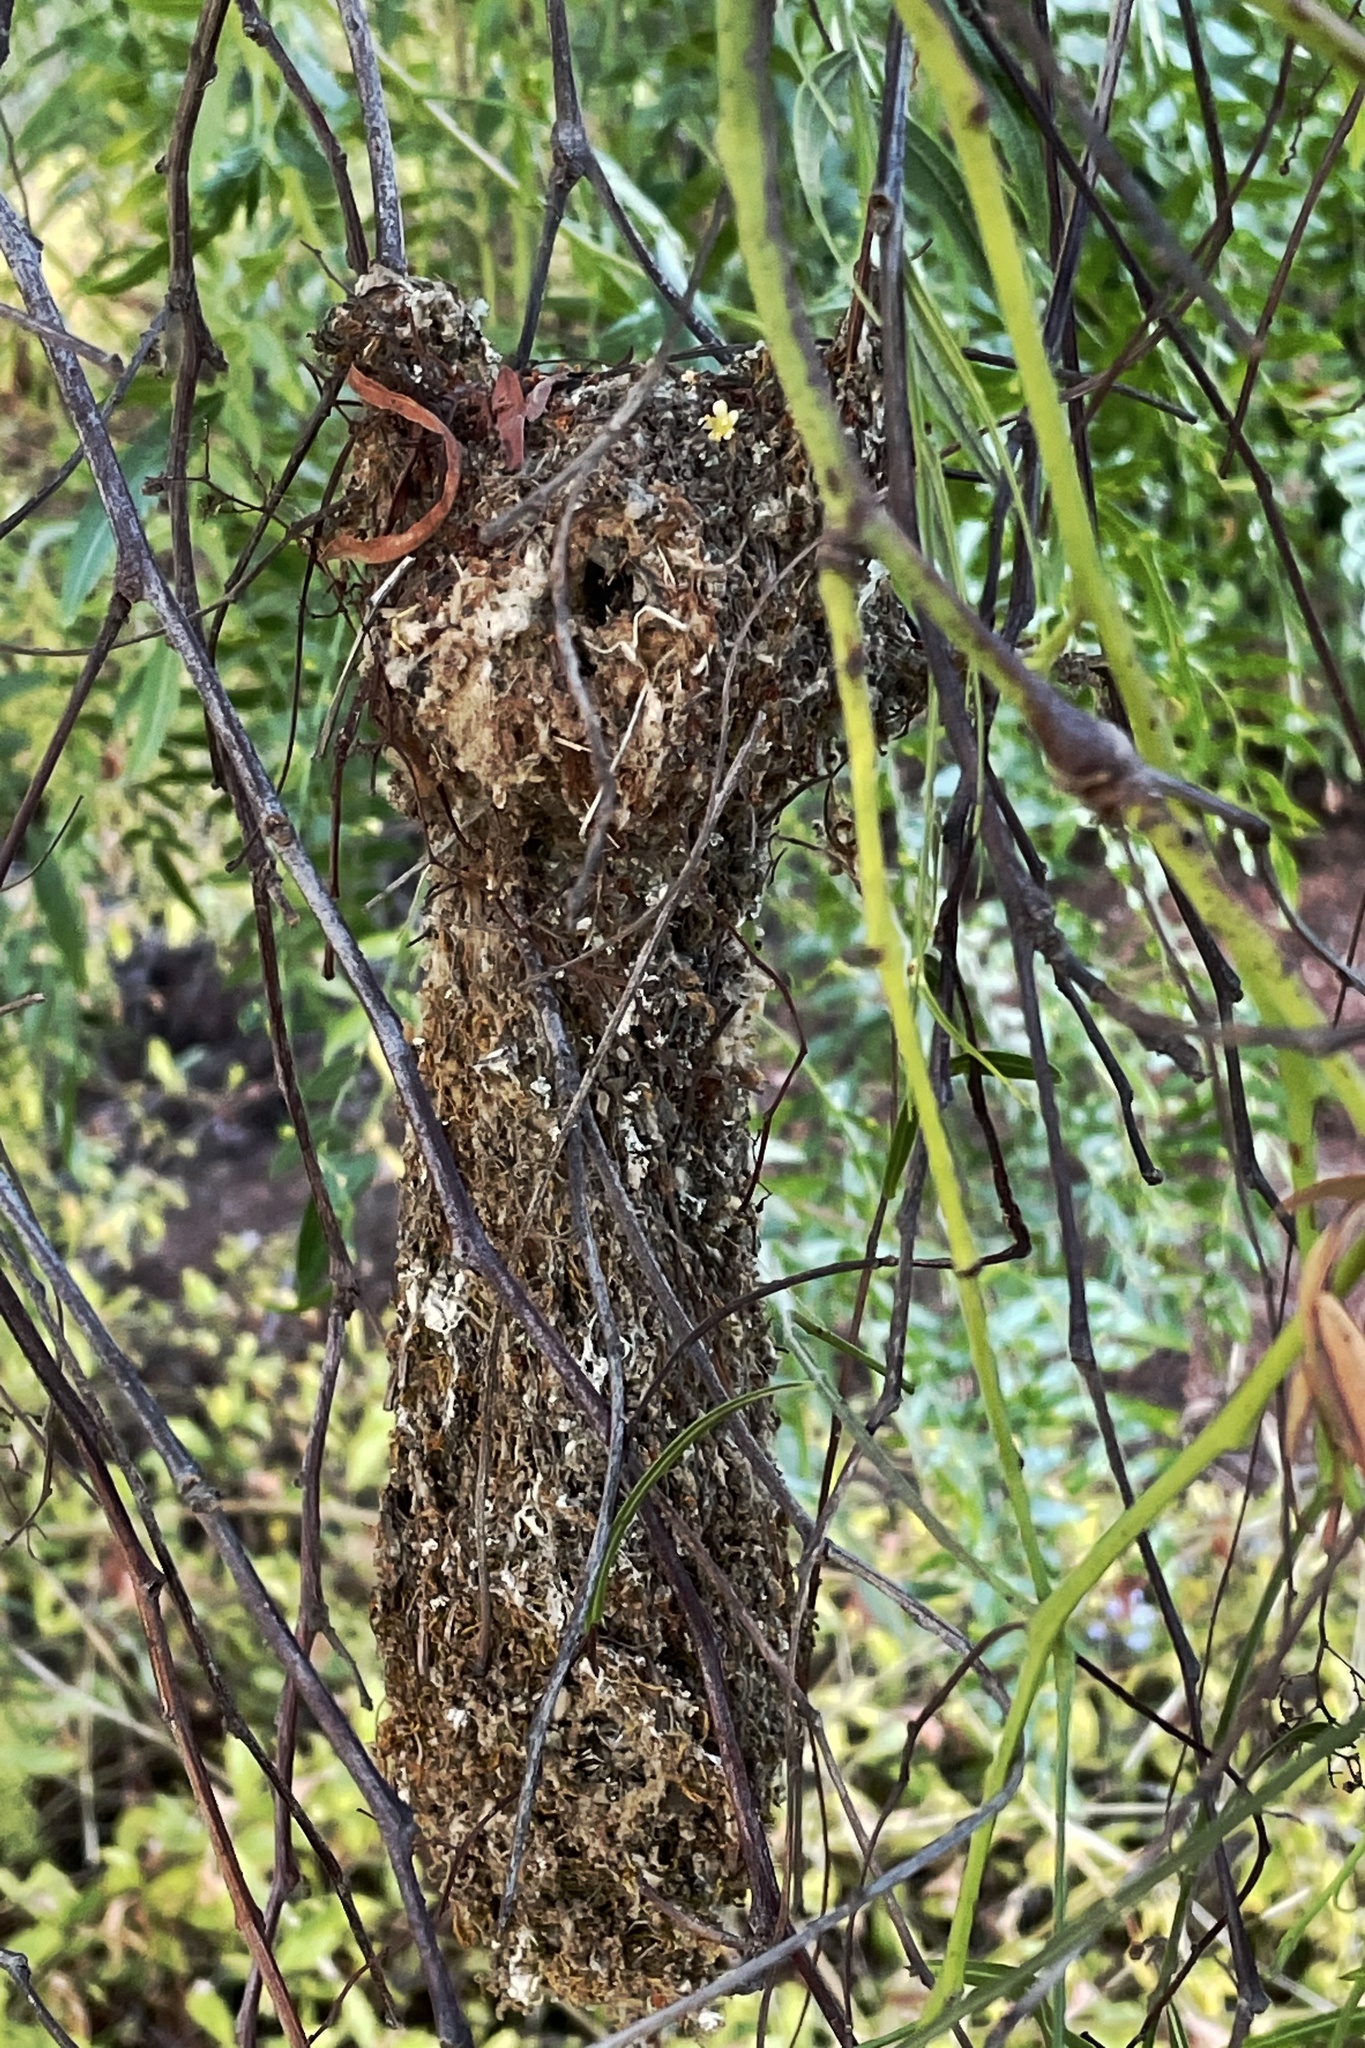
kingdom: Animalia
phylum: Chordata
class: Aves
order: Passeriformes
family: Aegithalidae
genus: Psaltriparus
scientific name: Psaltriparus minimus
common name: American bushtit
